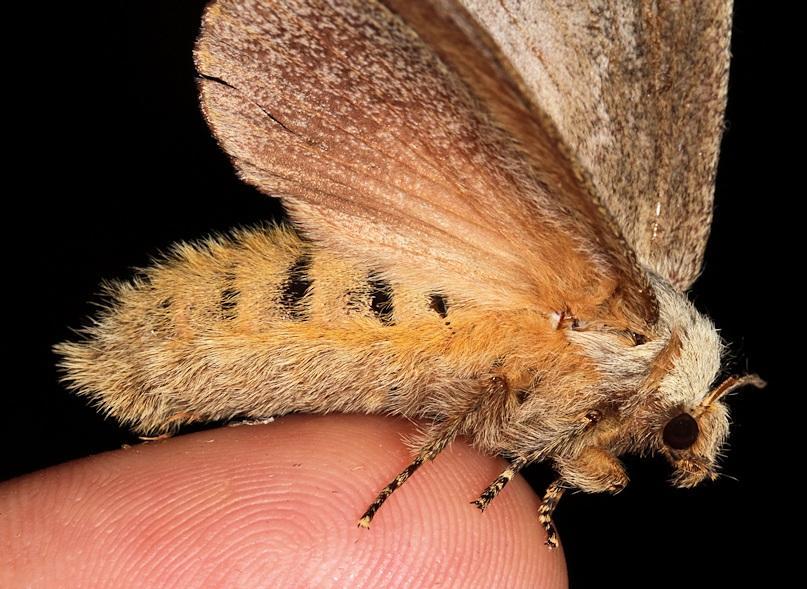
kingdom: Animalia
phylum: Arthropoda
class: Insecta
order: Lepidoptera
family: Lasiocampidae
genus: Eutricha
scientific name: Eutricha obscura
